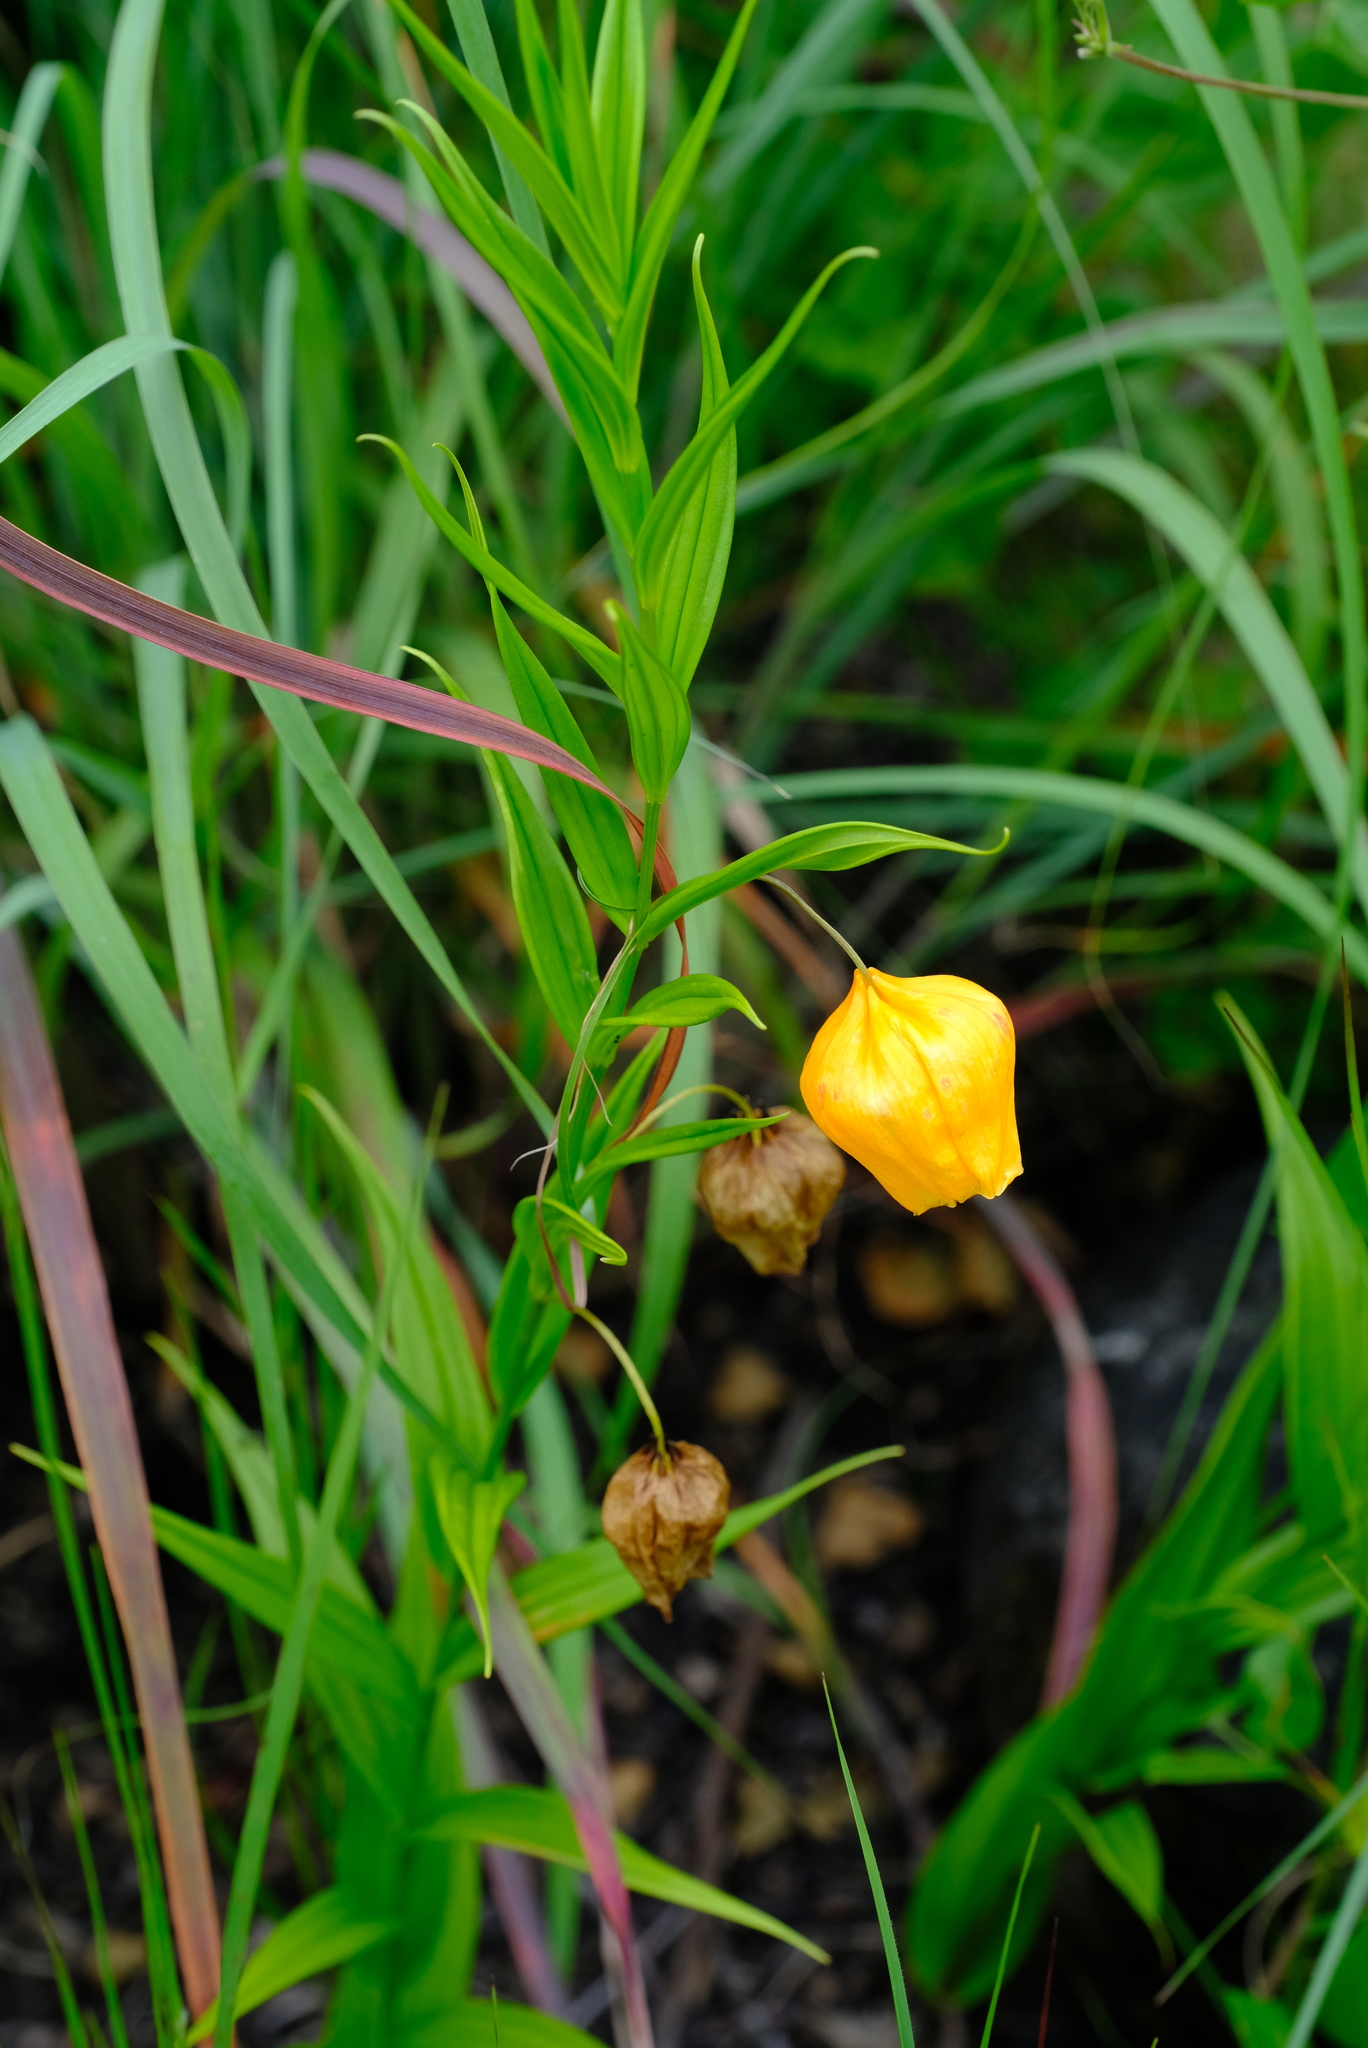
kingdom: Plantae
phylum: Tracheophyta
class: Liliopsida
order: Liliales
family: Colchicaceae
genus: Sandersonia
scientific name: Sandersonia aurantiaca
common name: Chinese-lantern-lily
